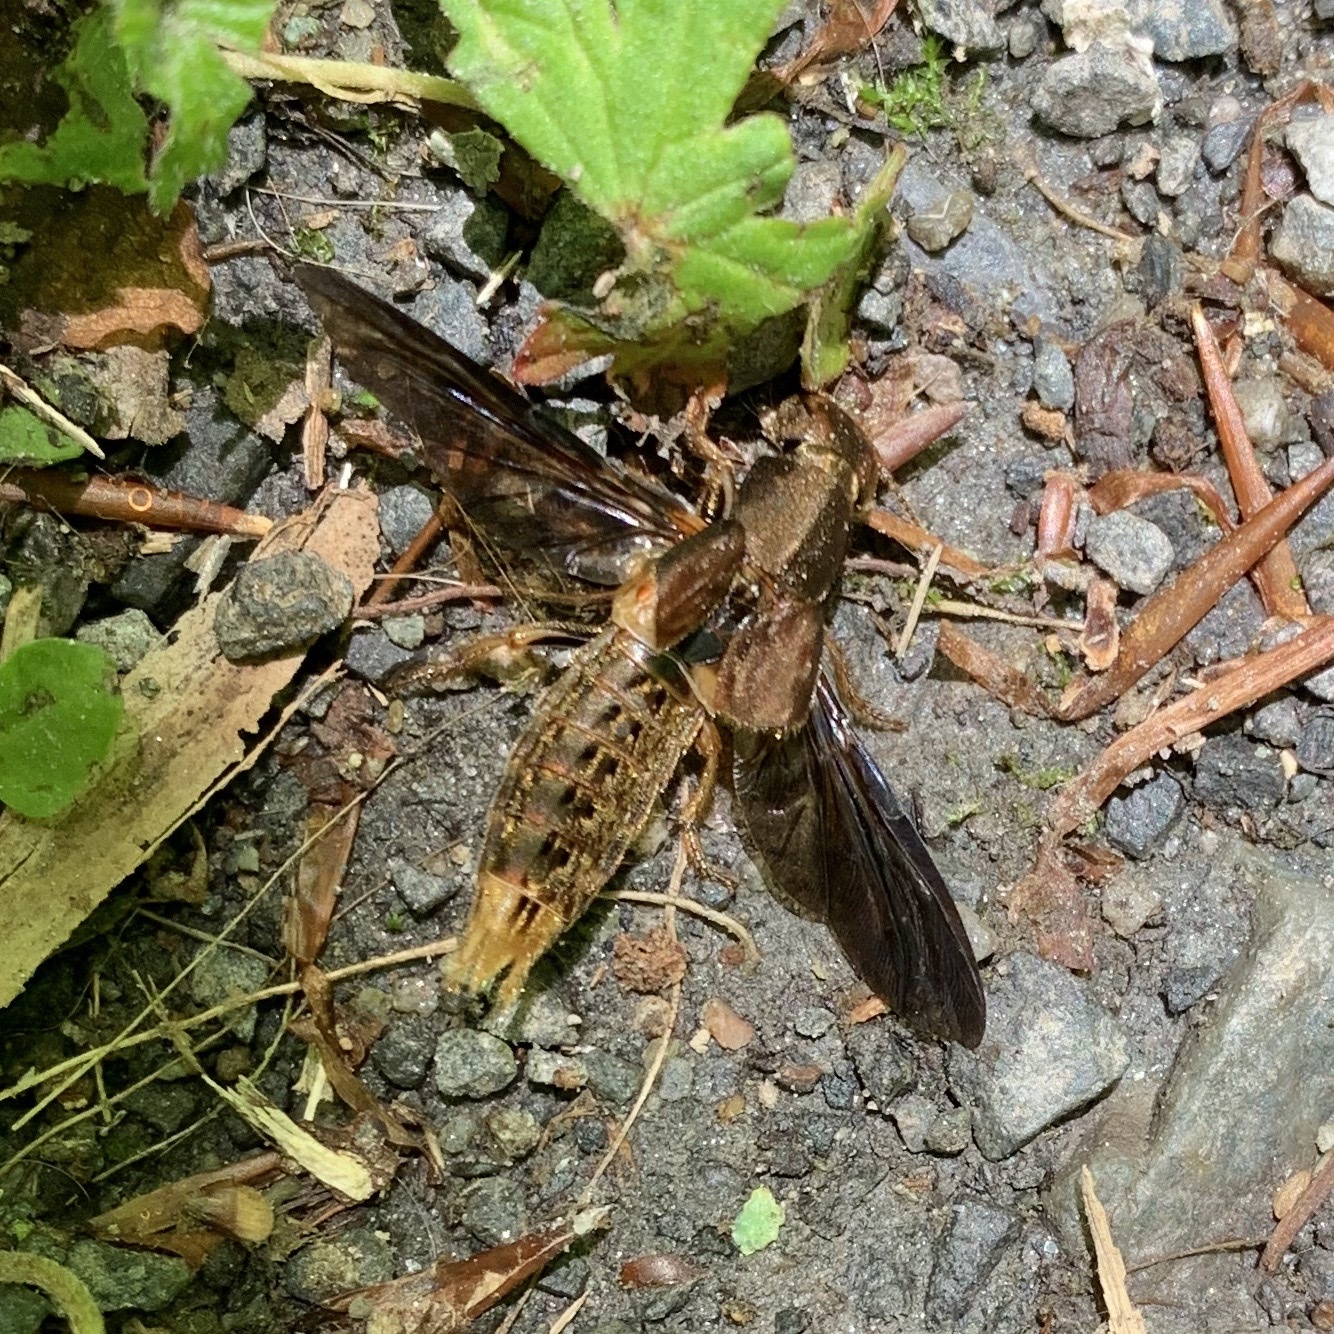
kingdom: Animalia
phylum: Arthropoda
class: Insecta
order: Coleoptera
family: Staphylinidae
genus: Platydracus
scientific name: Platydracus maculosus
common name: Brown rove beetle
